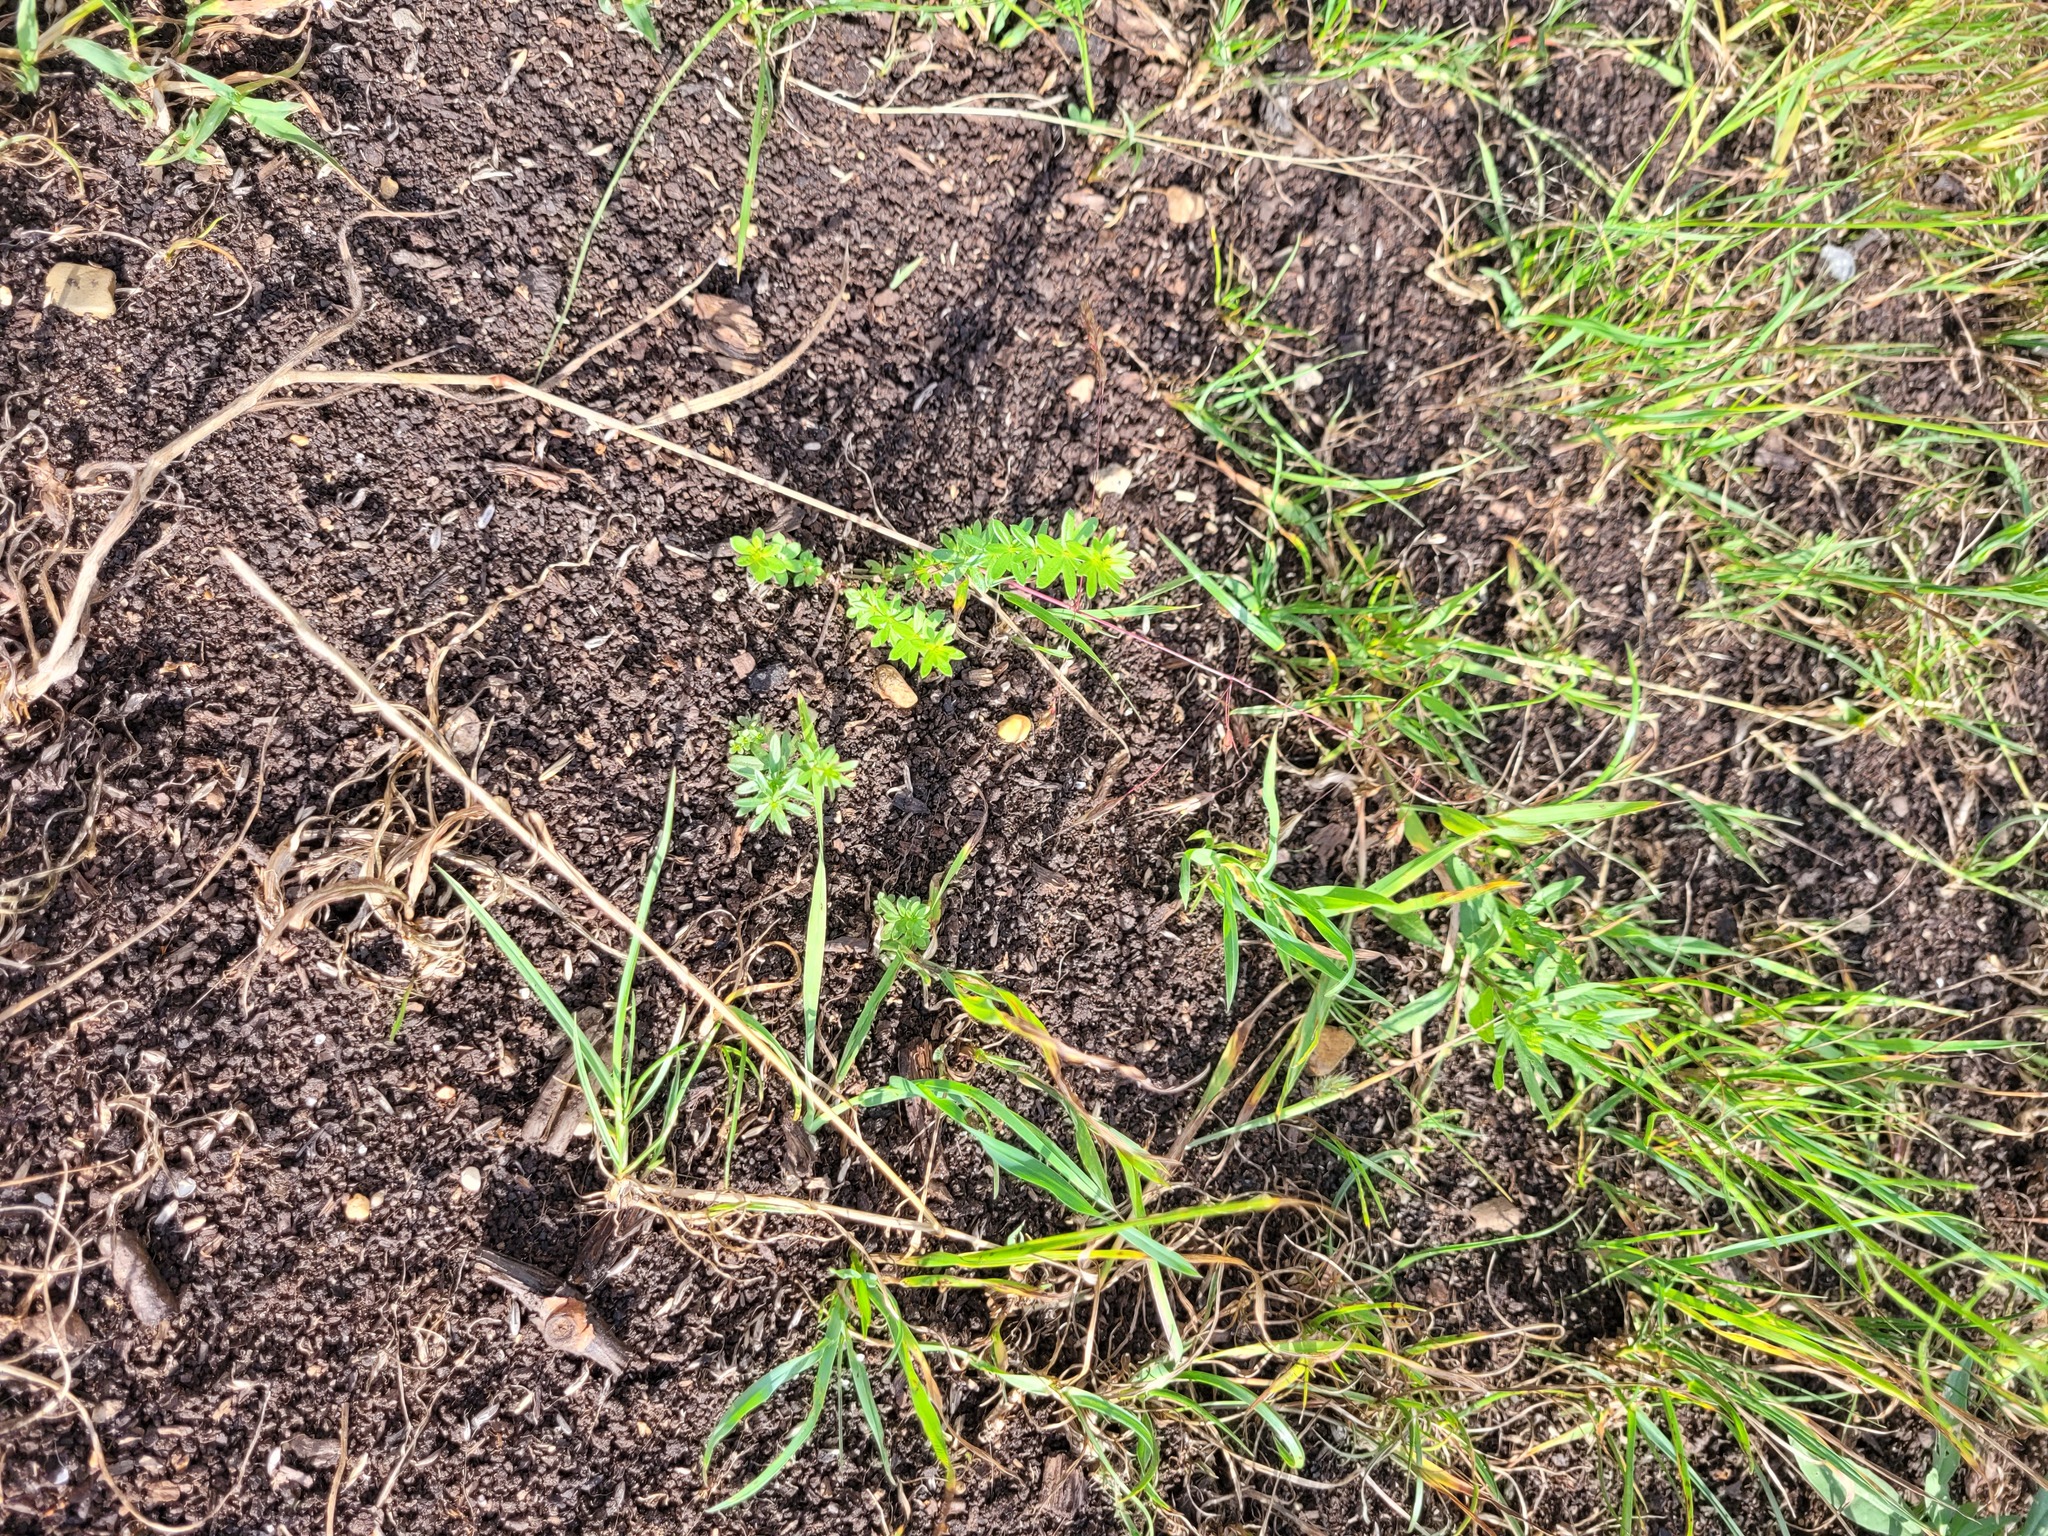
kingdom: Plantae
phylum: Tracheophyta
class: Magnoliopsida
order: Gentianales
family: Rubiaceae
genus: Galium
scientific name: Galium mollugo
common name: Hedge bedstraw
